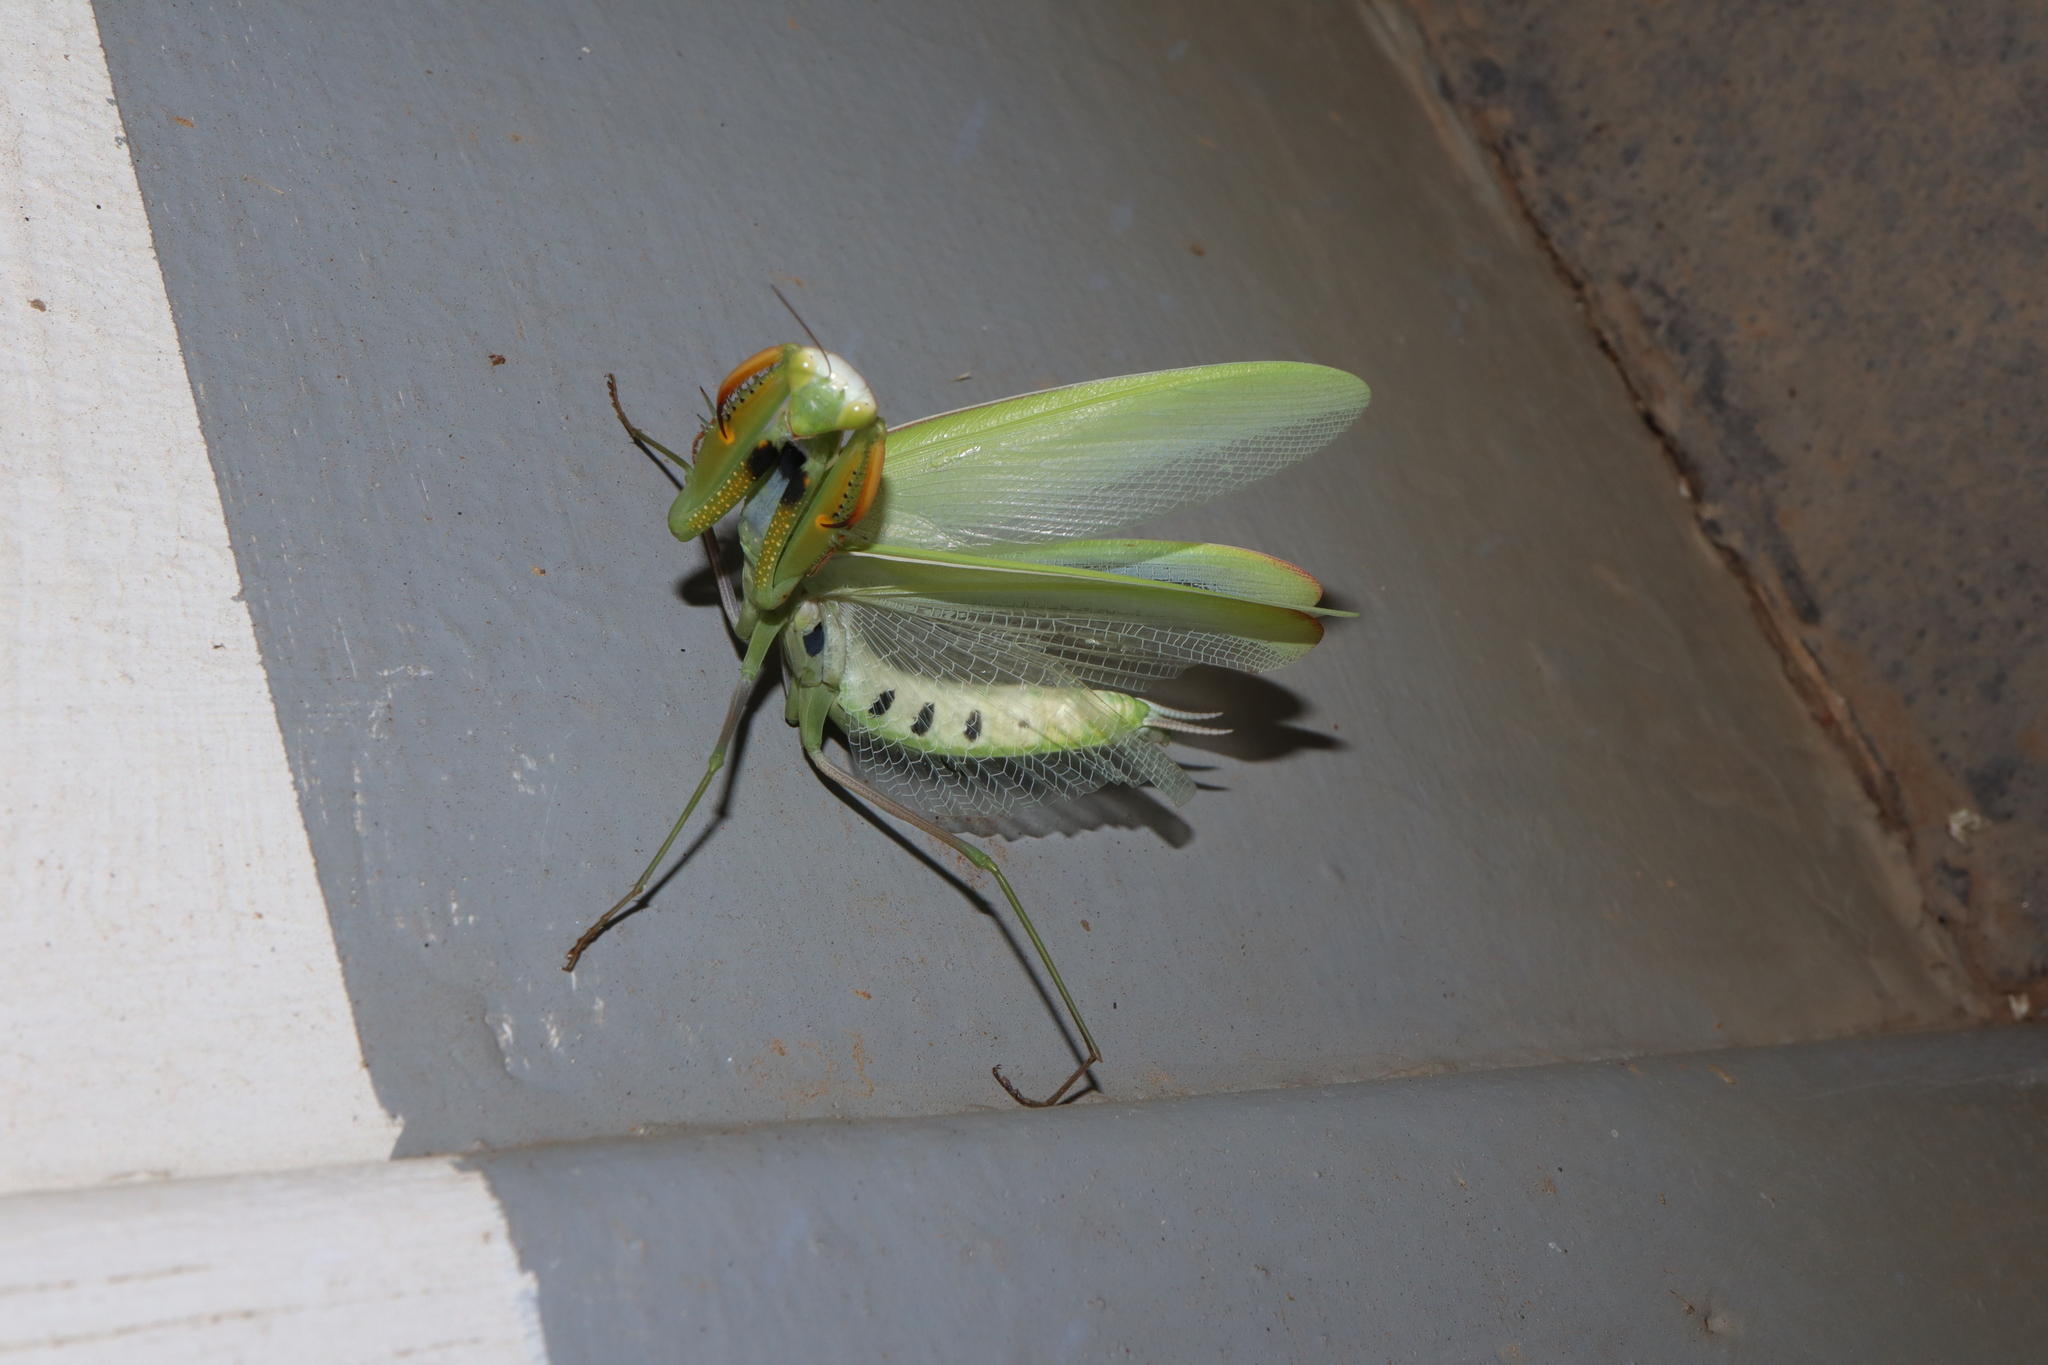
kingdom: Animalia
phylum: Arthropoda
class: Insecta
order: Mantodea
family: Mantidae
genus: Mantis
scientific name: Mantis octospilota
